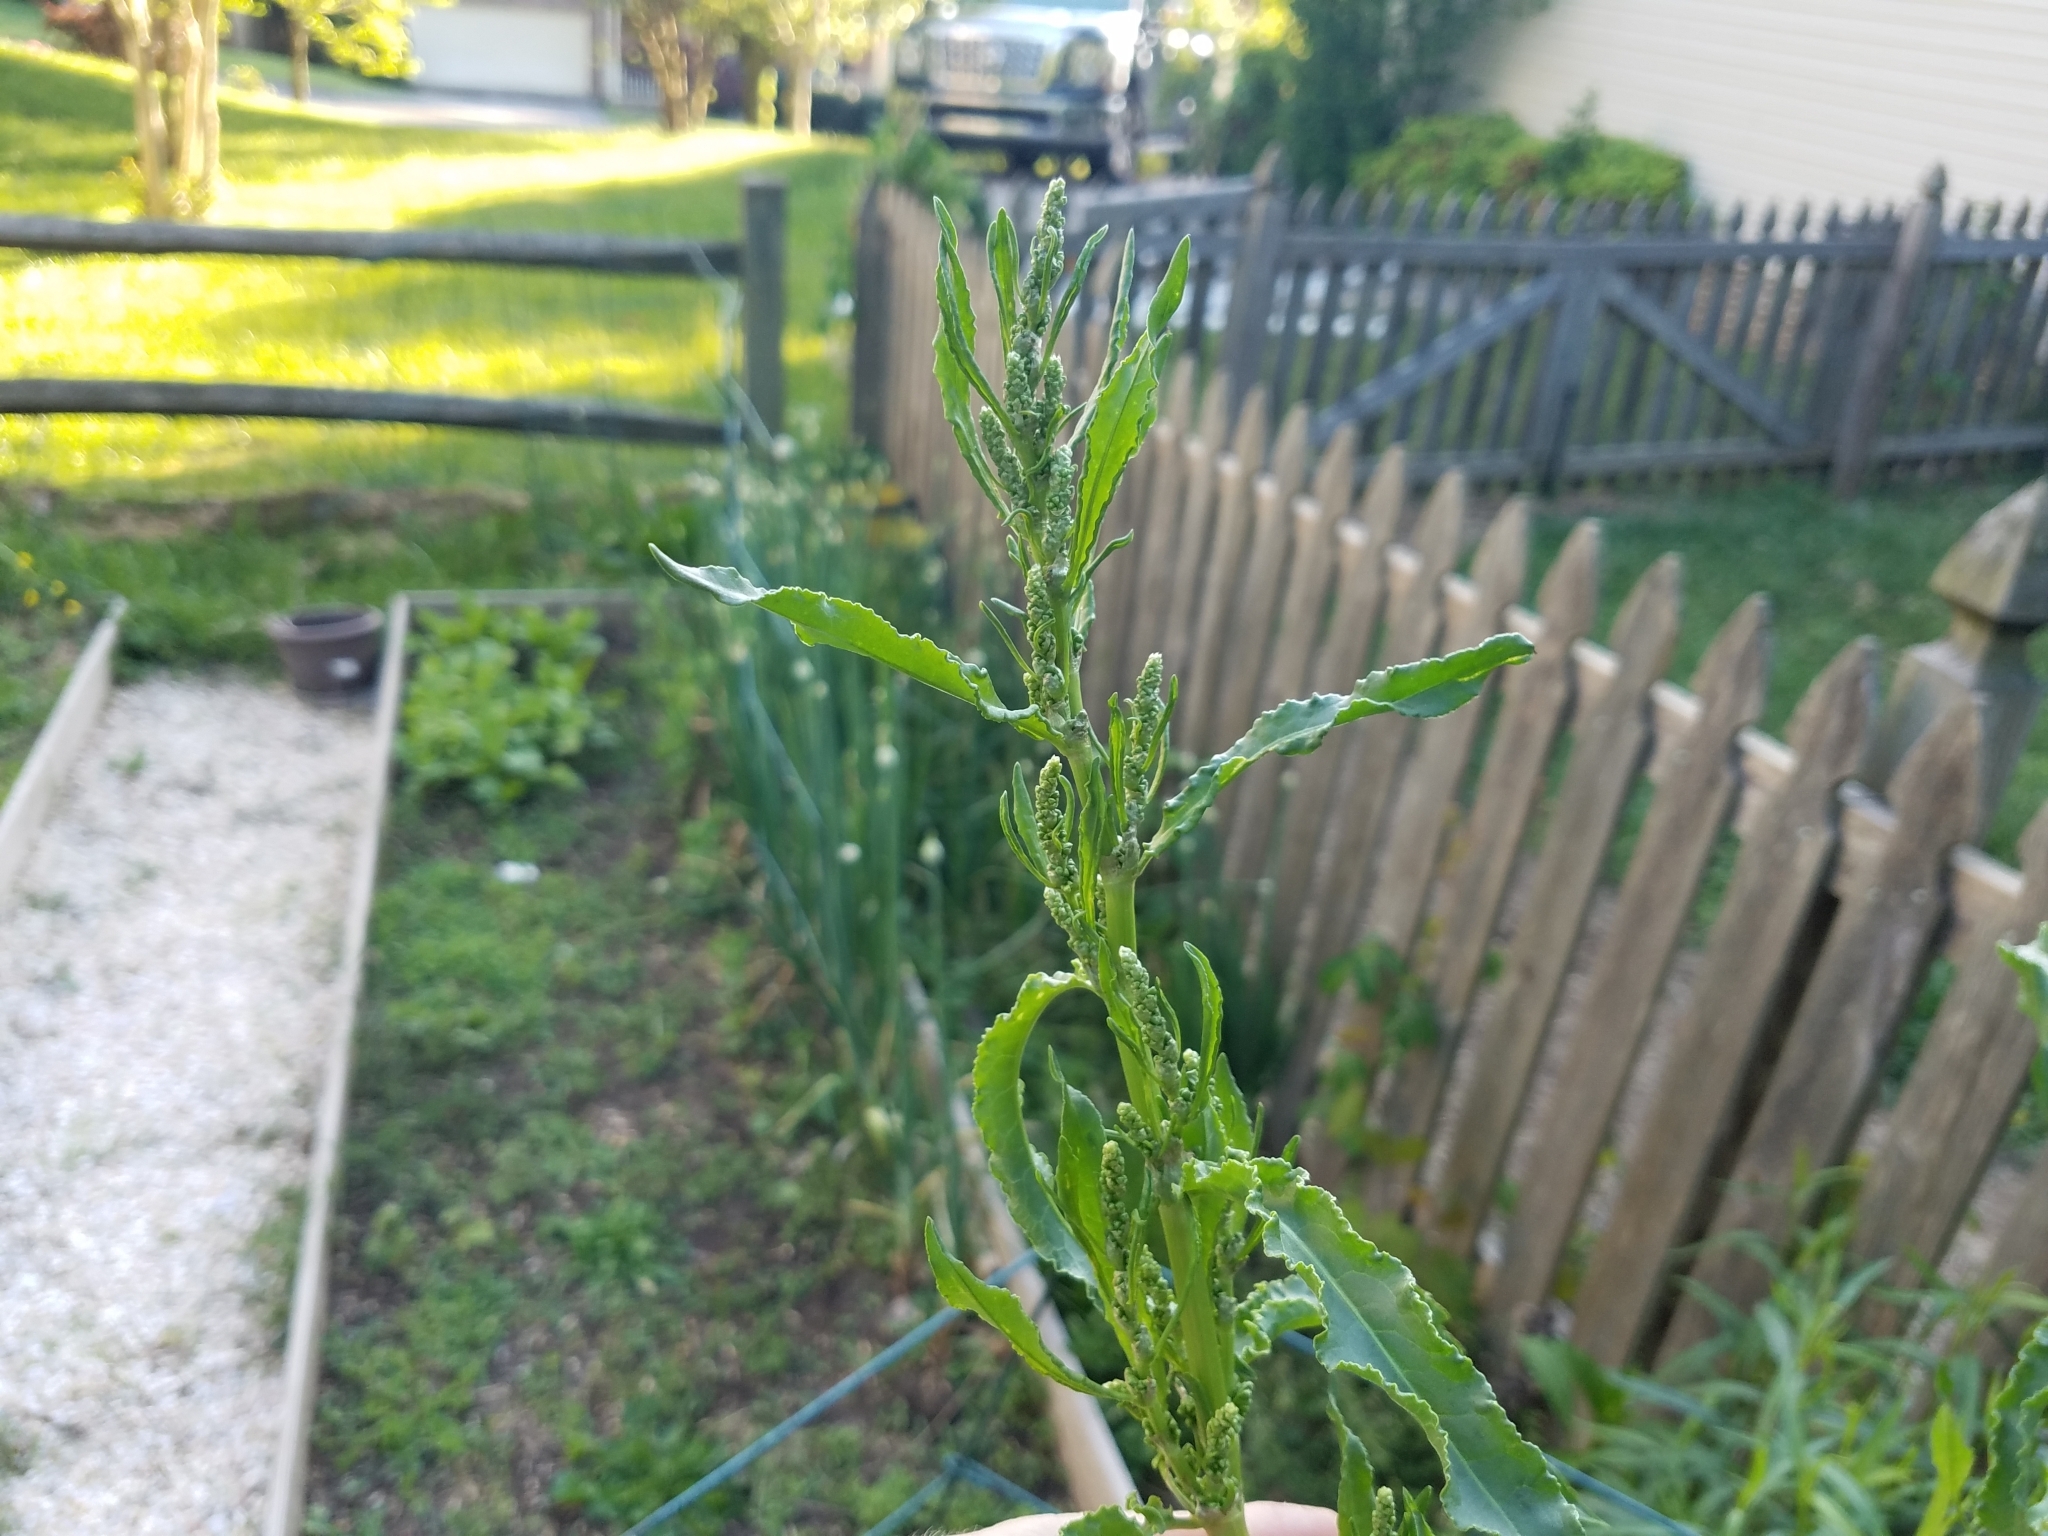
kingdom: Plantae
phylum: Tracheophyta
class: Magnoliopsida
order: Caryophyllales
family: Polygonaceae
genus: Rumex
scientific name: Rumex crispus
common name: Curled dock
